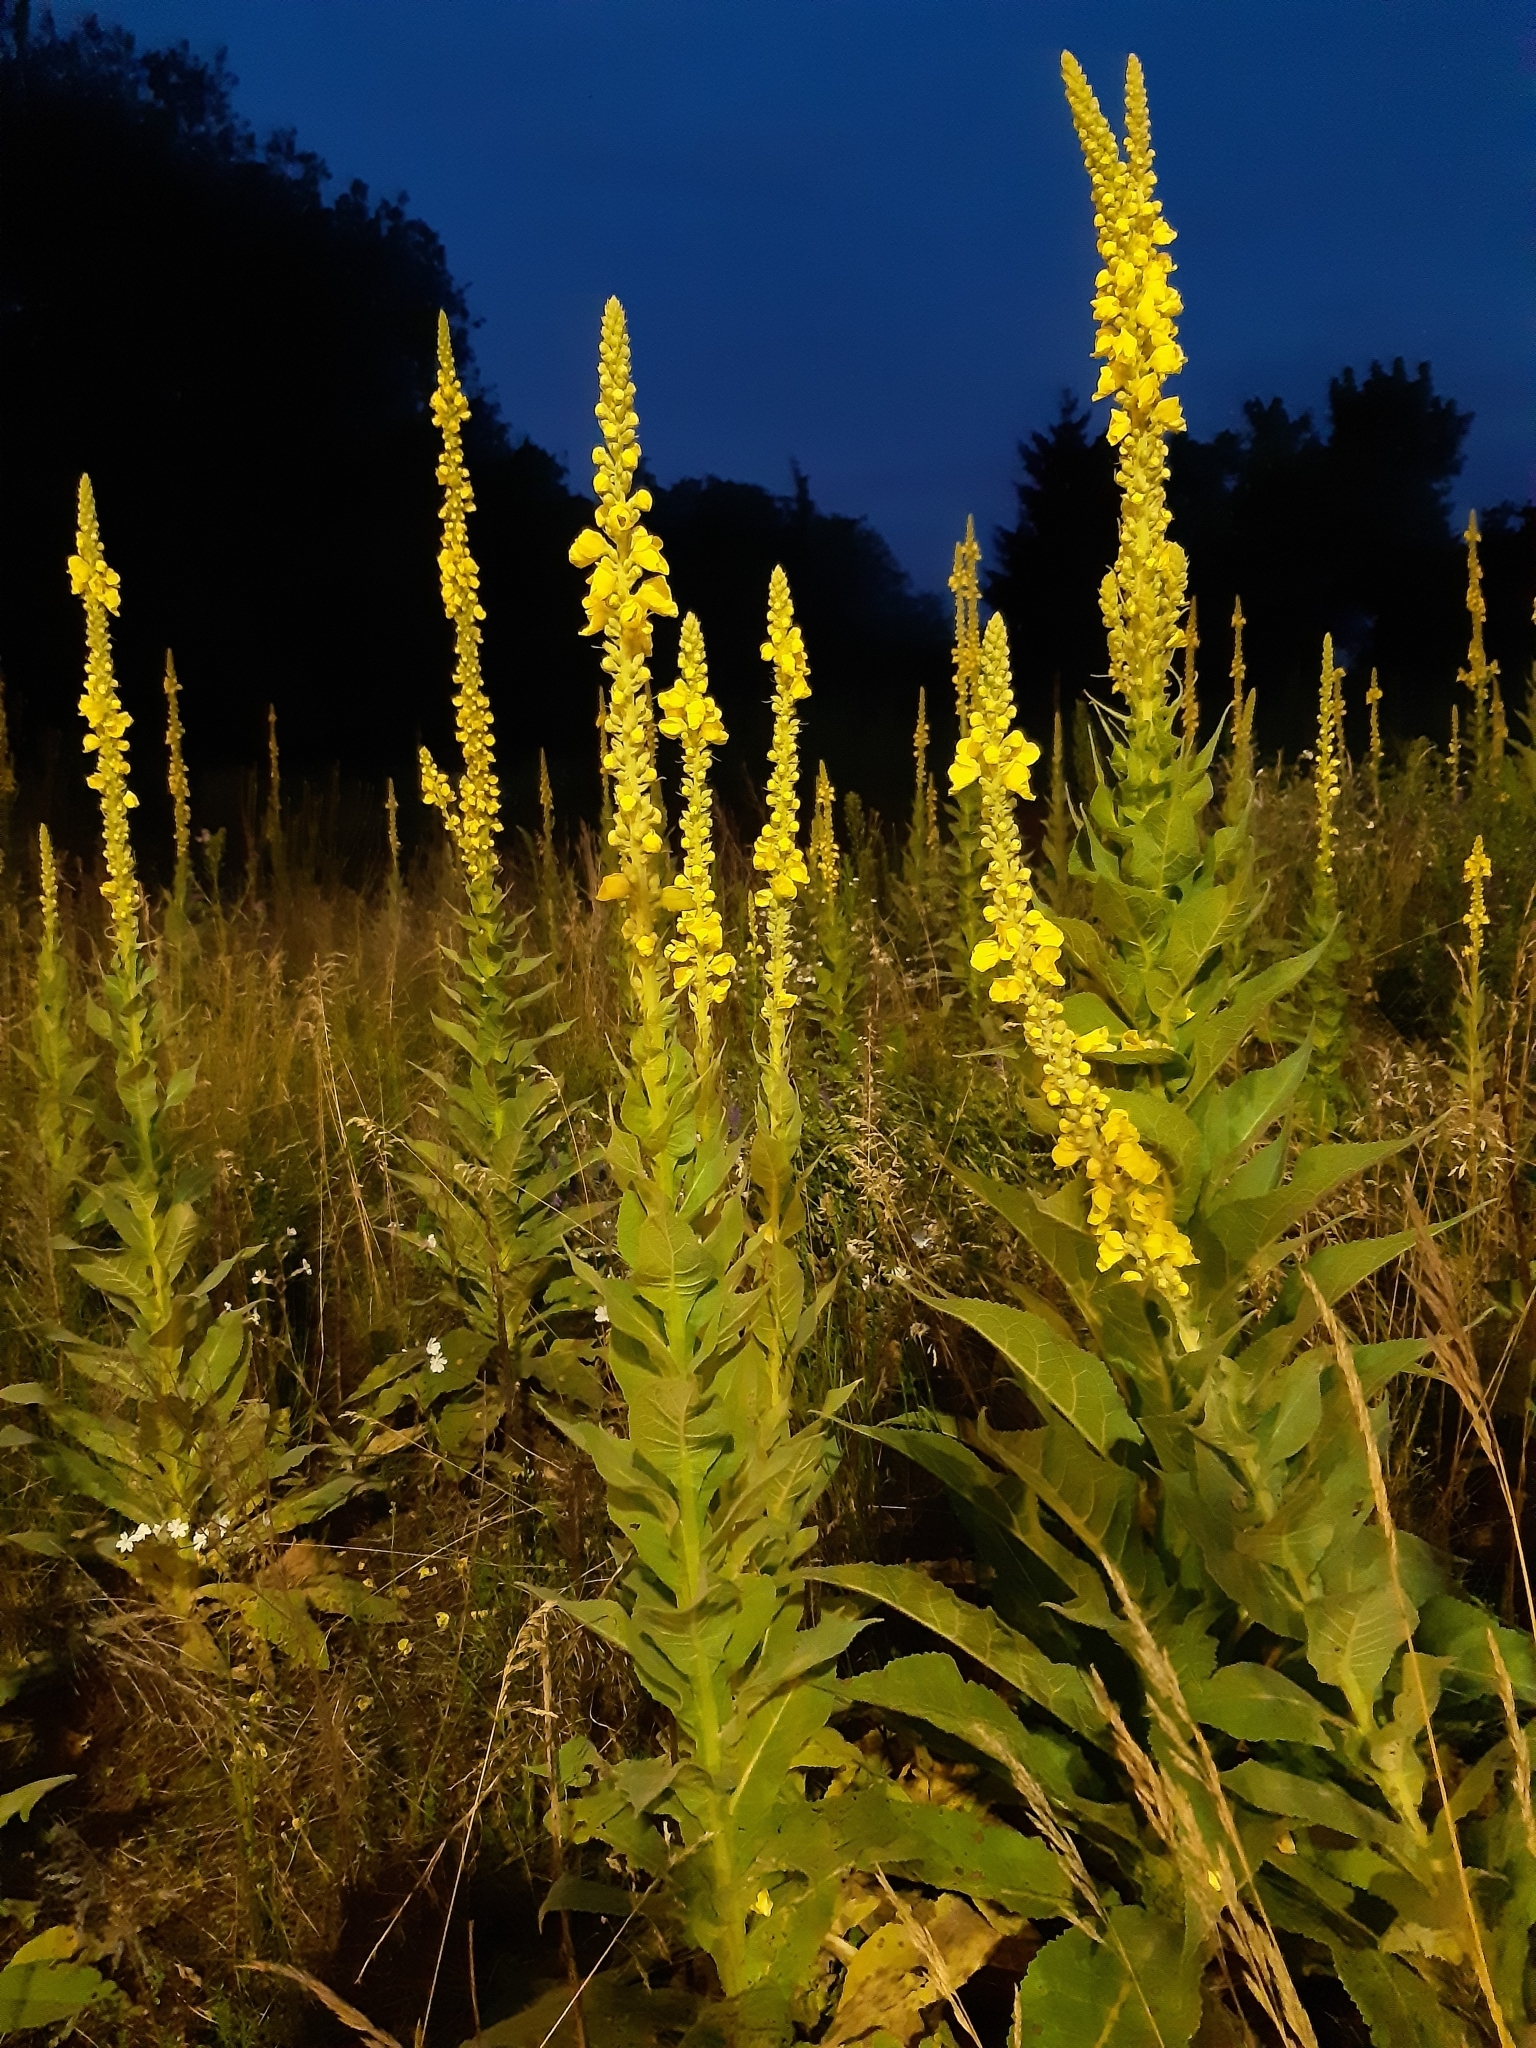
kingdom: Plantae
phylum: Tracheophyta
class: Magnoliopsida
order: Lamiales
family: Scrophulariaceae
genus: Verbascum
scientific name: Verbascum thapsus
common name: Common mullein
